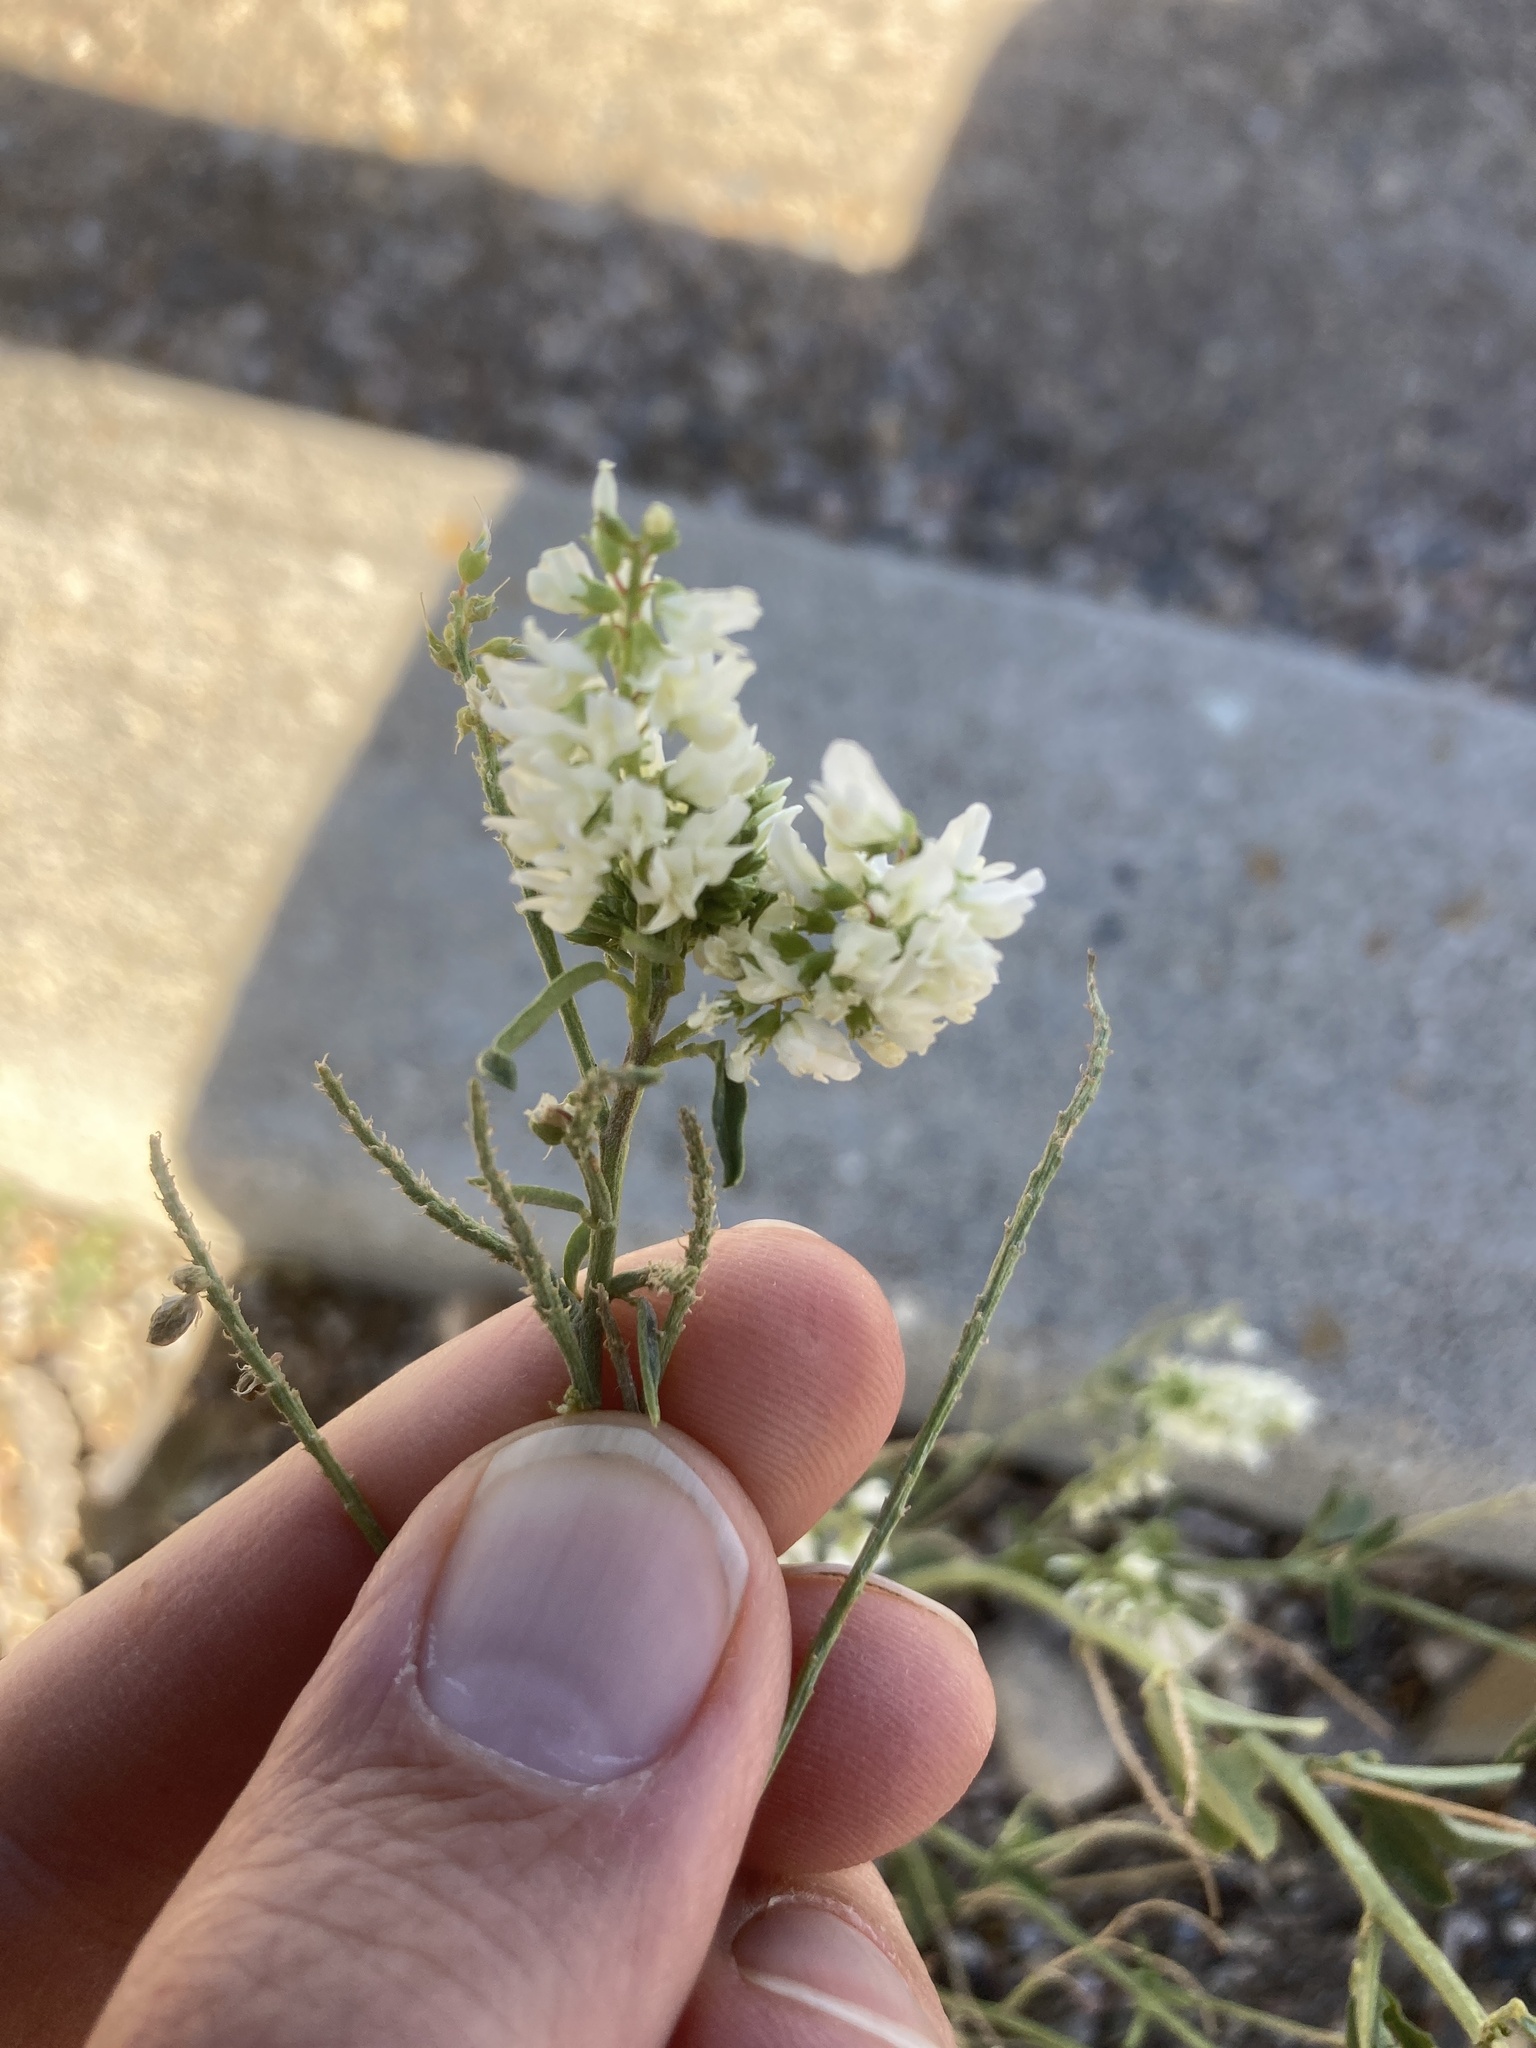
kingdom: Plantae
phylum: Tracheophyta
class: Magnoliopsida
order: Fabales
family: Fabaceae
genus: Melilotus
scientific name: Melilotus albus
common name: White melilot
